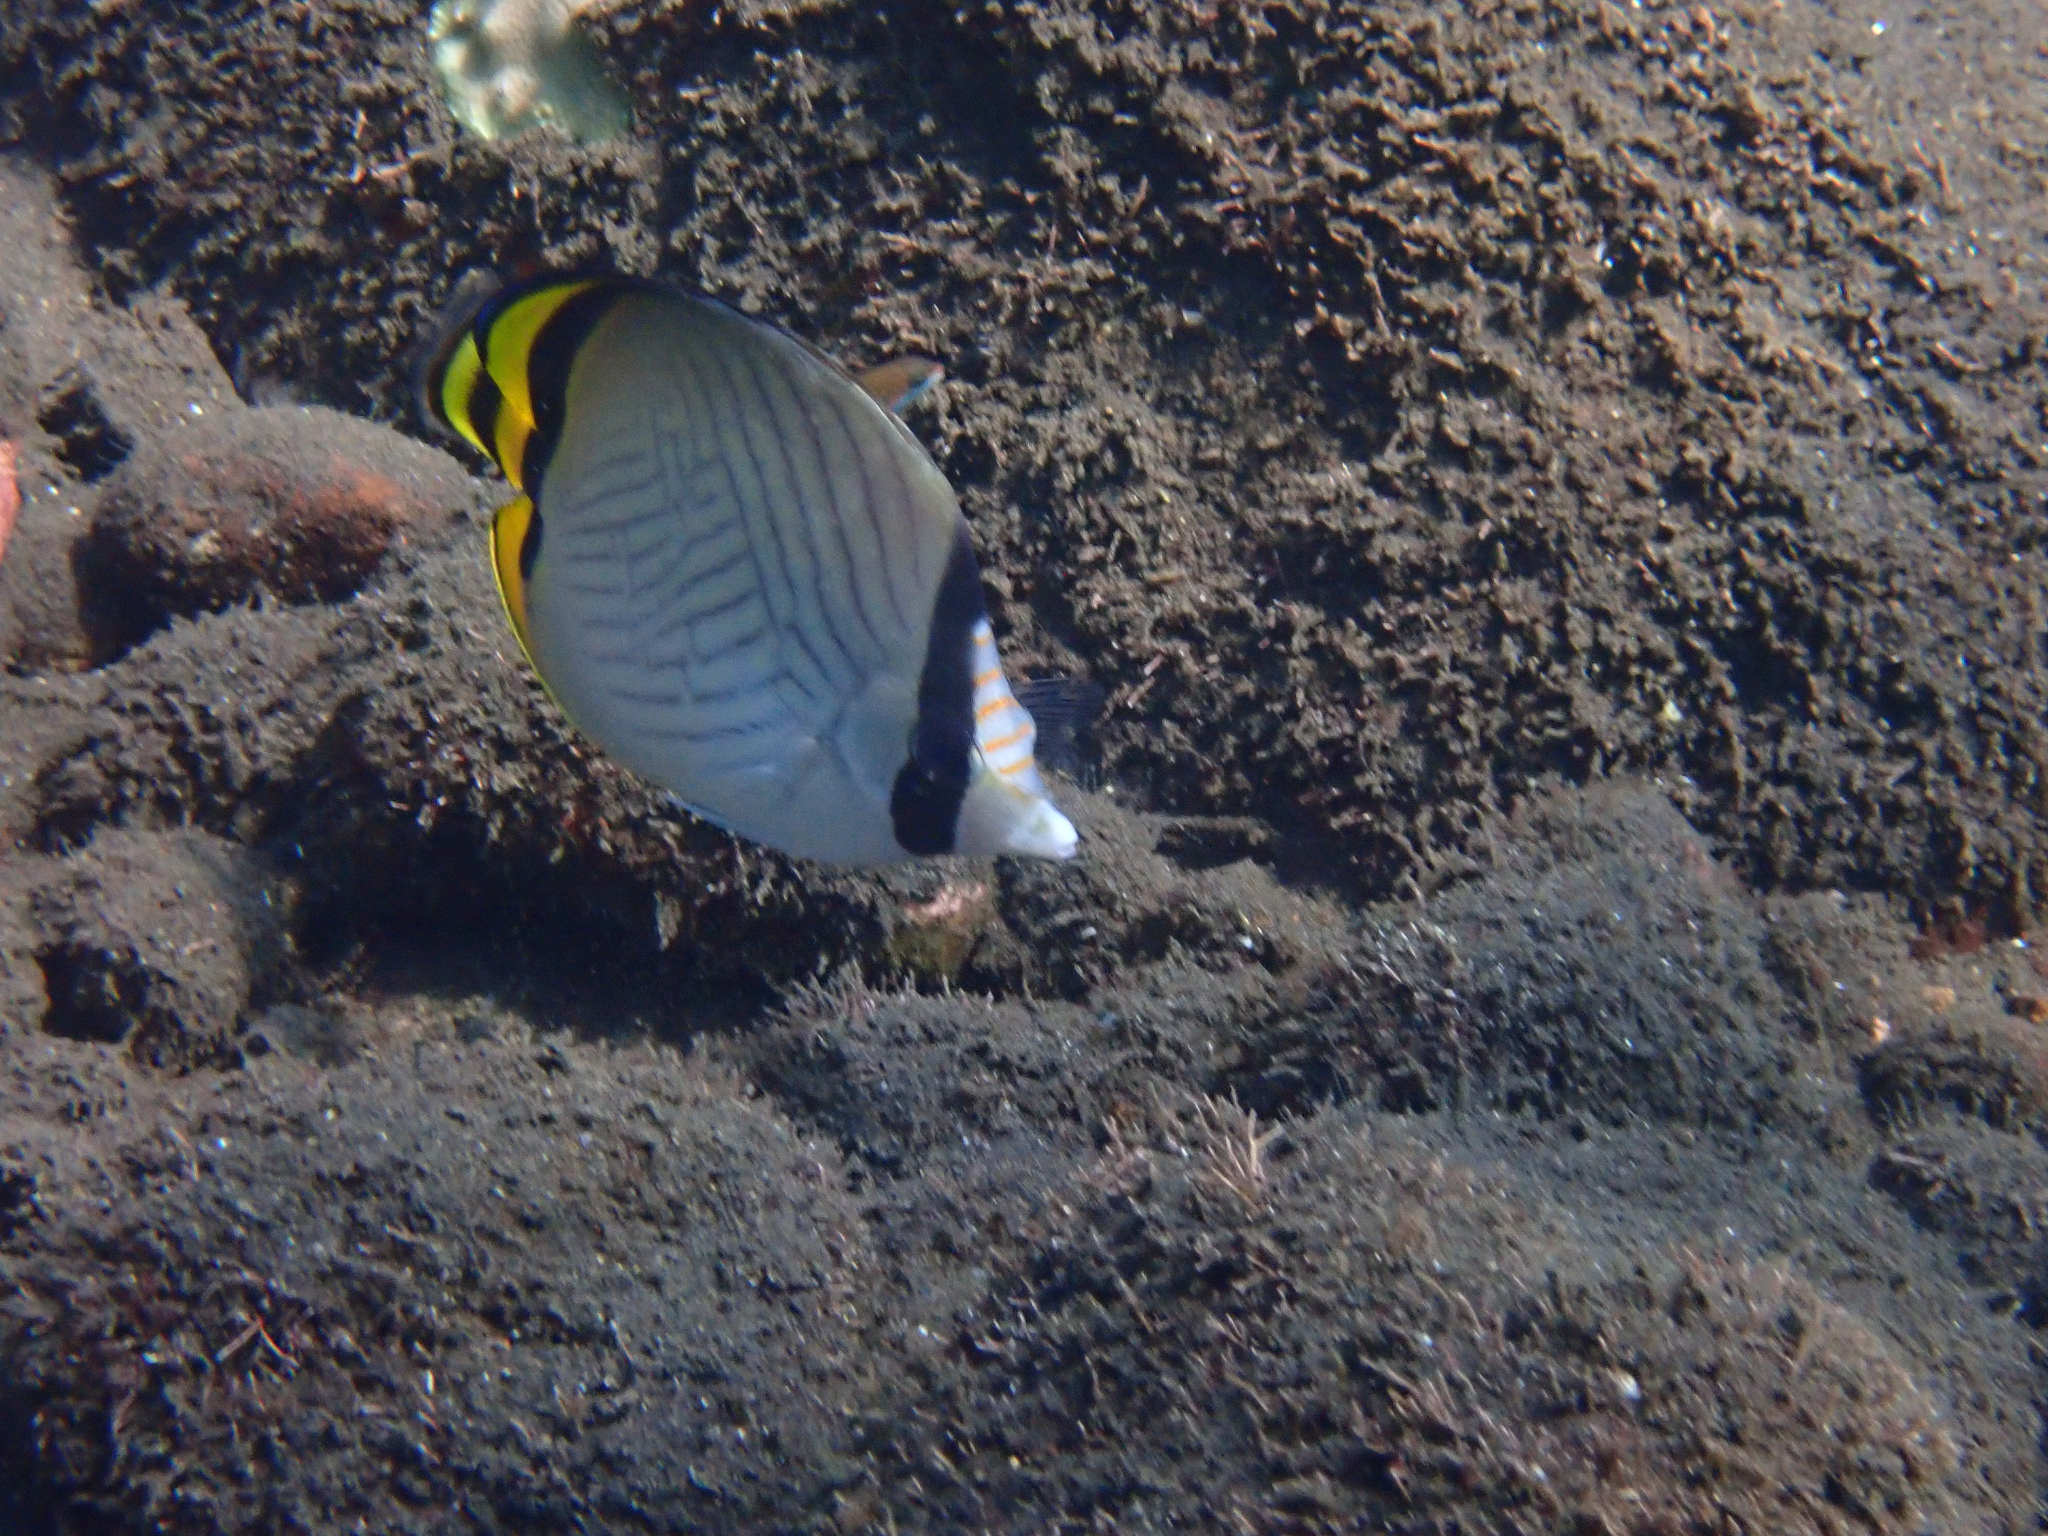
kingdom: Animalia
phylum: Chordata
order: Perciformes
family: Chaetodontidae
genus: Chaetodon
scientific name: Chaetodon vagabundus
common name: Vagabond butterflyfish
